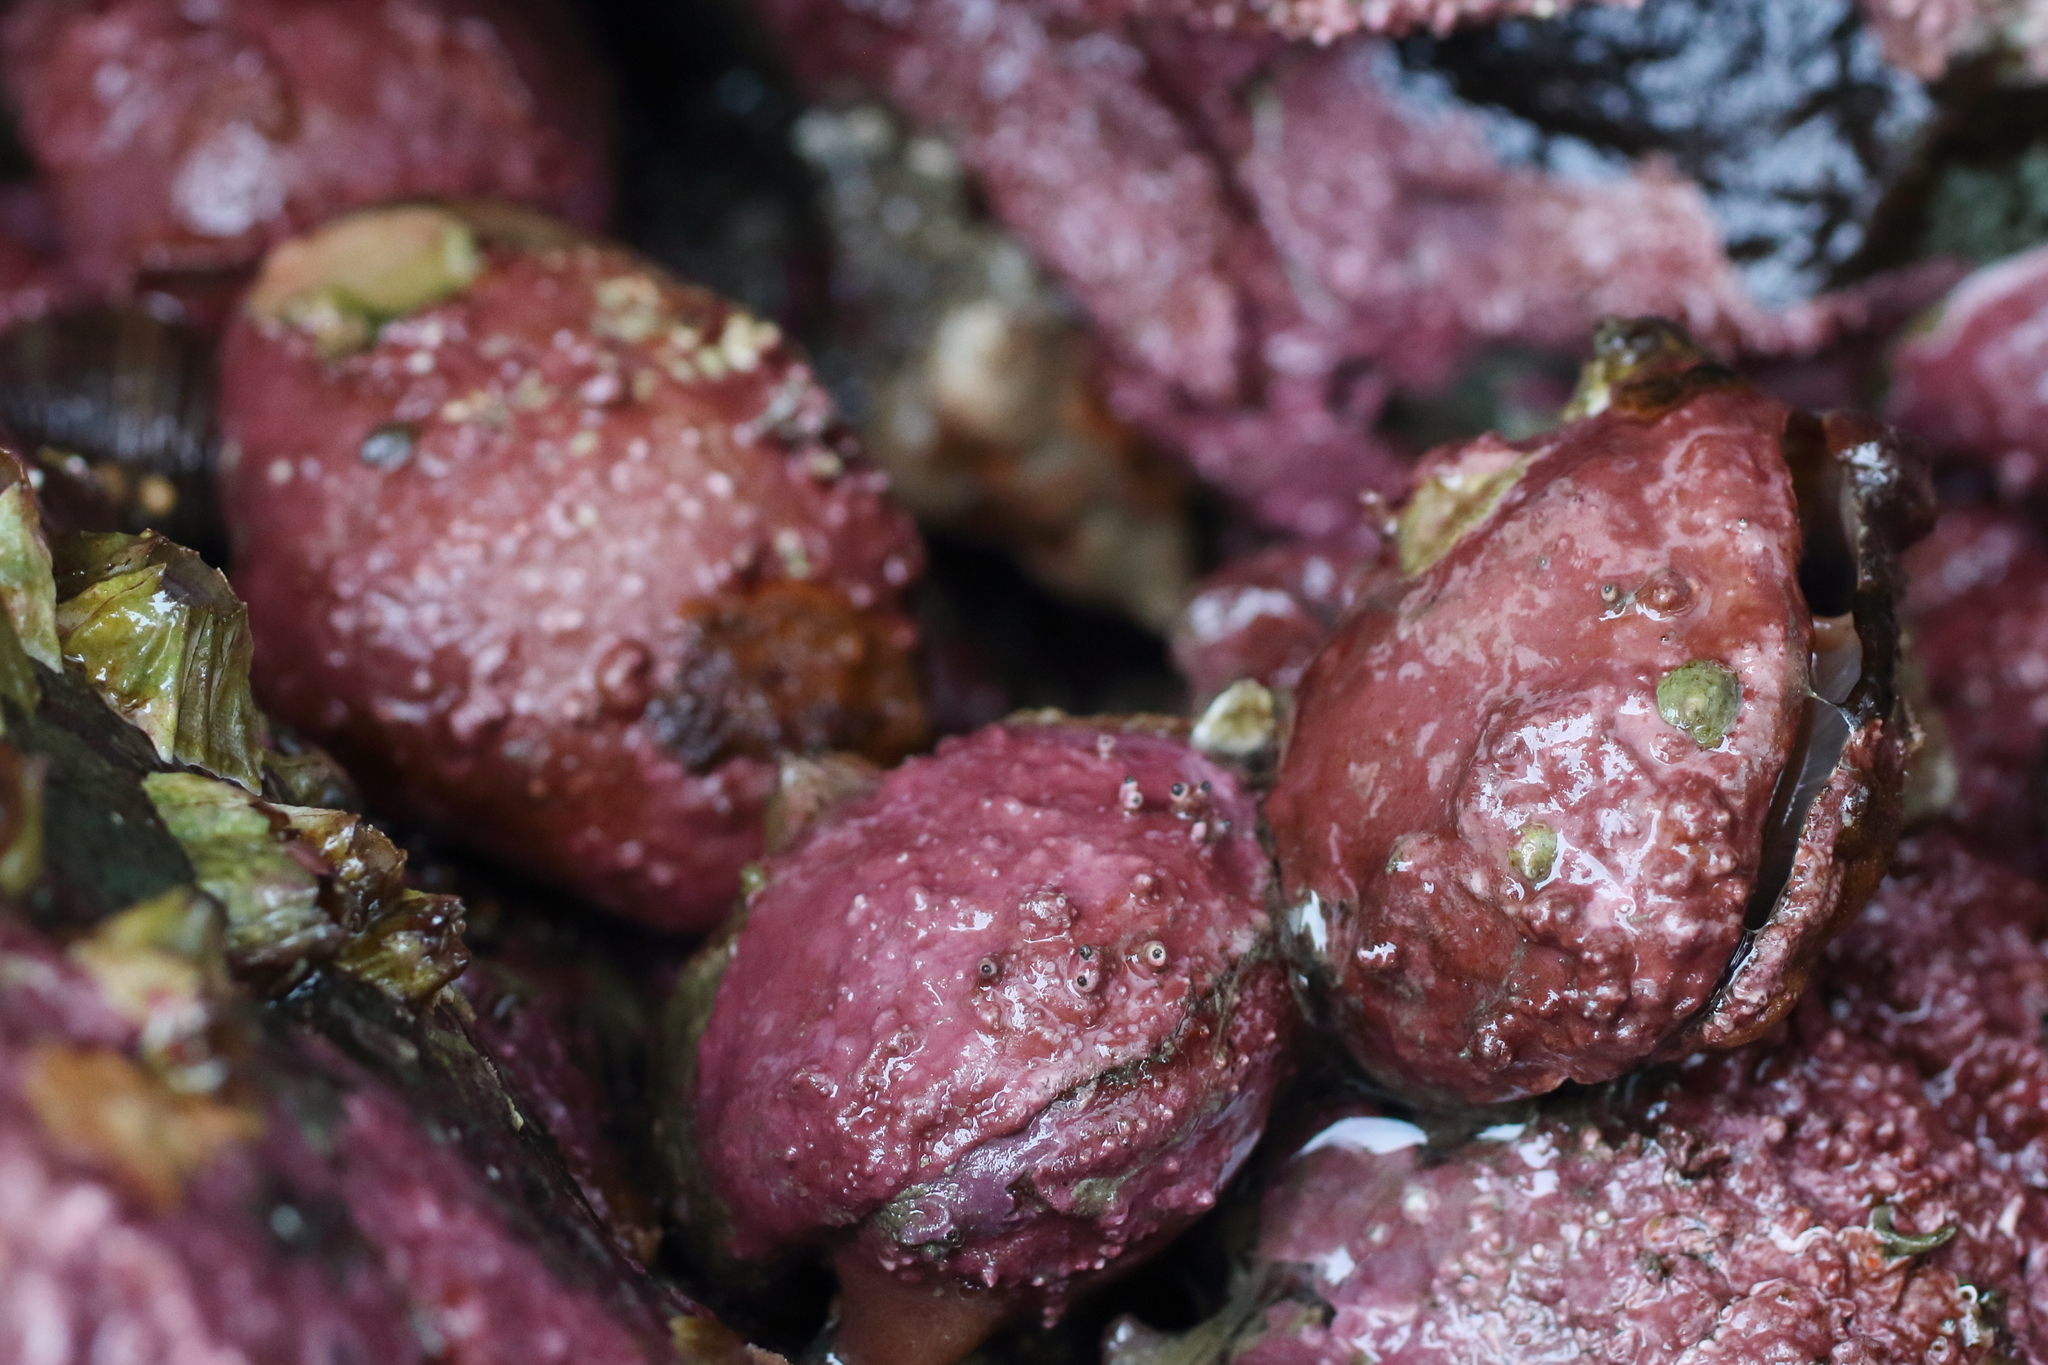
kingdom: Animalia
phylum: Brachiopoda
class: Rhynchonellata
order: Terebratulida
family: Terebrataliidae
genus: Terebratalia
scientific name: Terebratalia transversa
